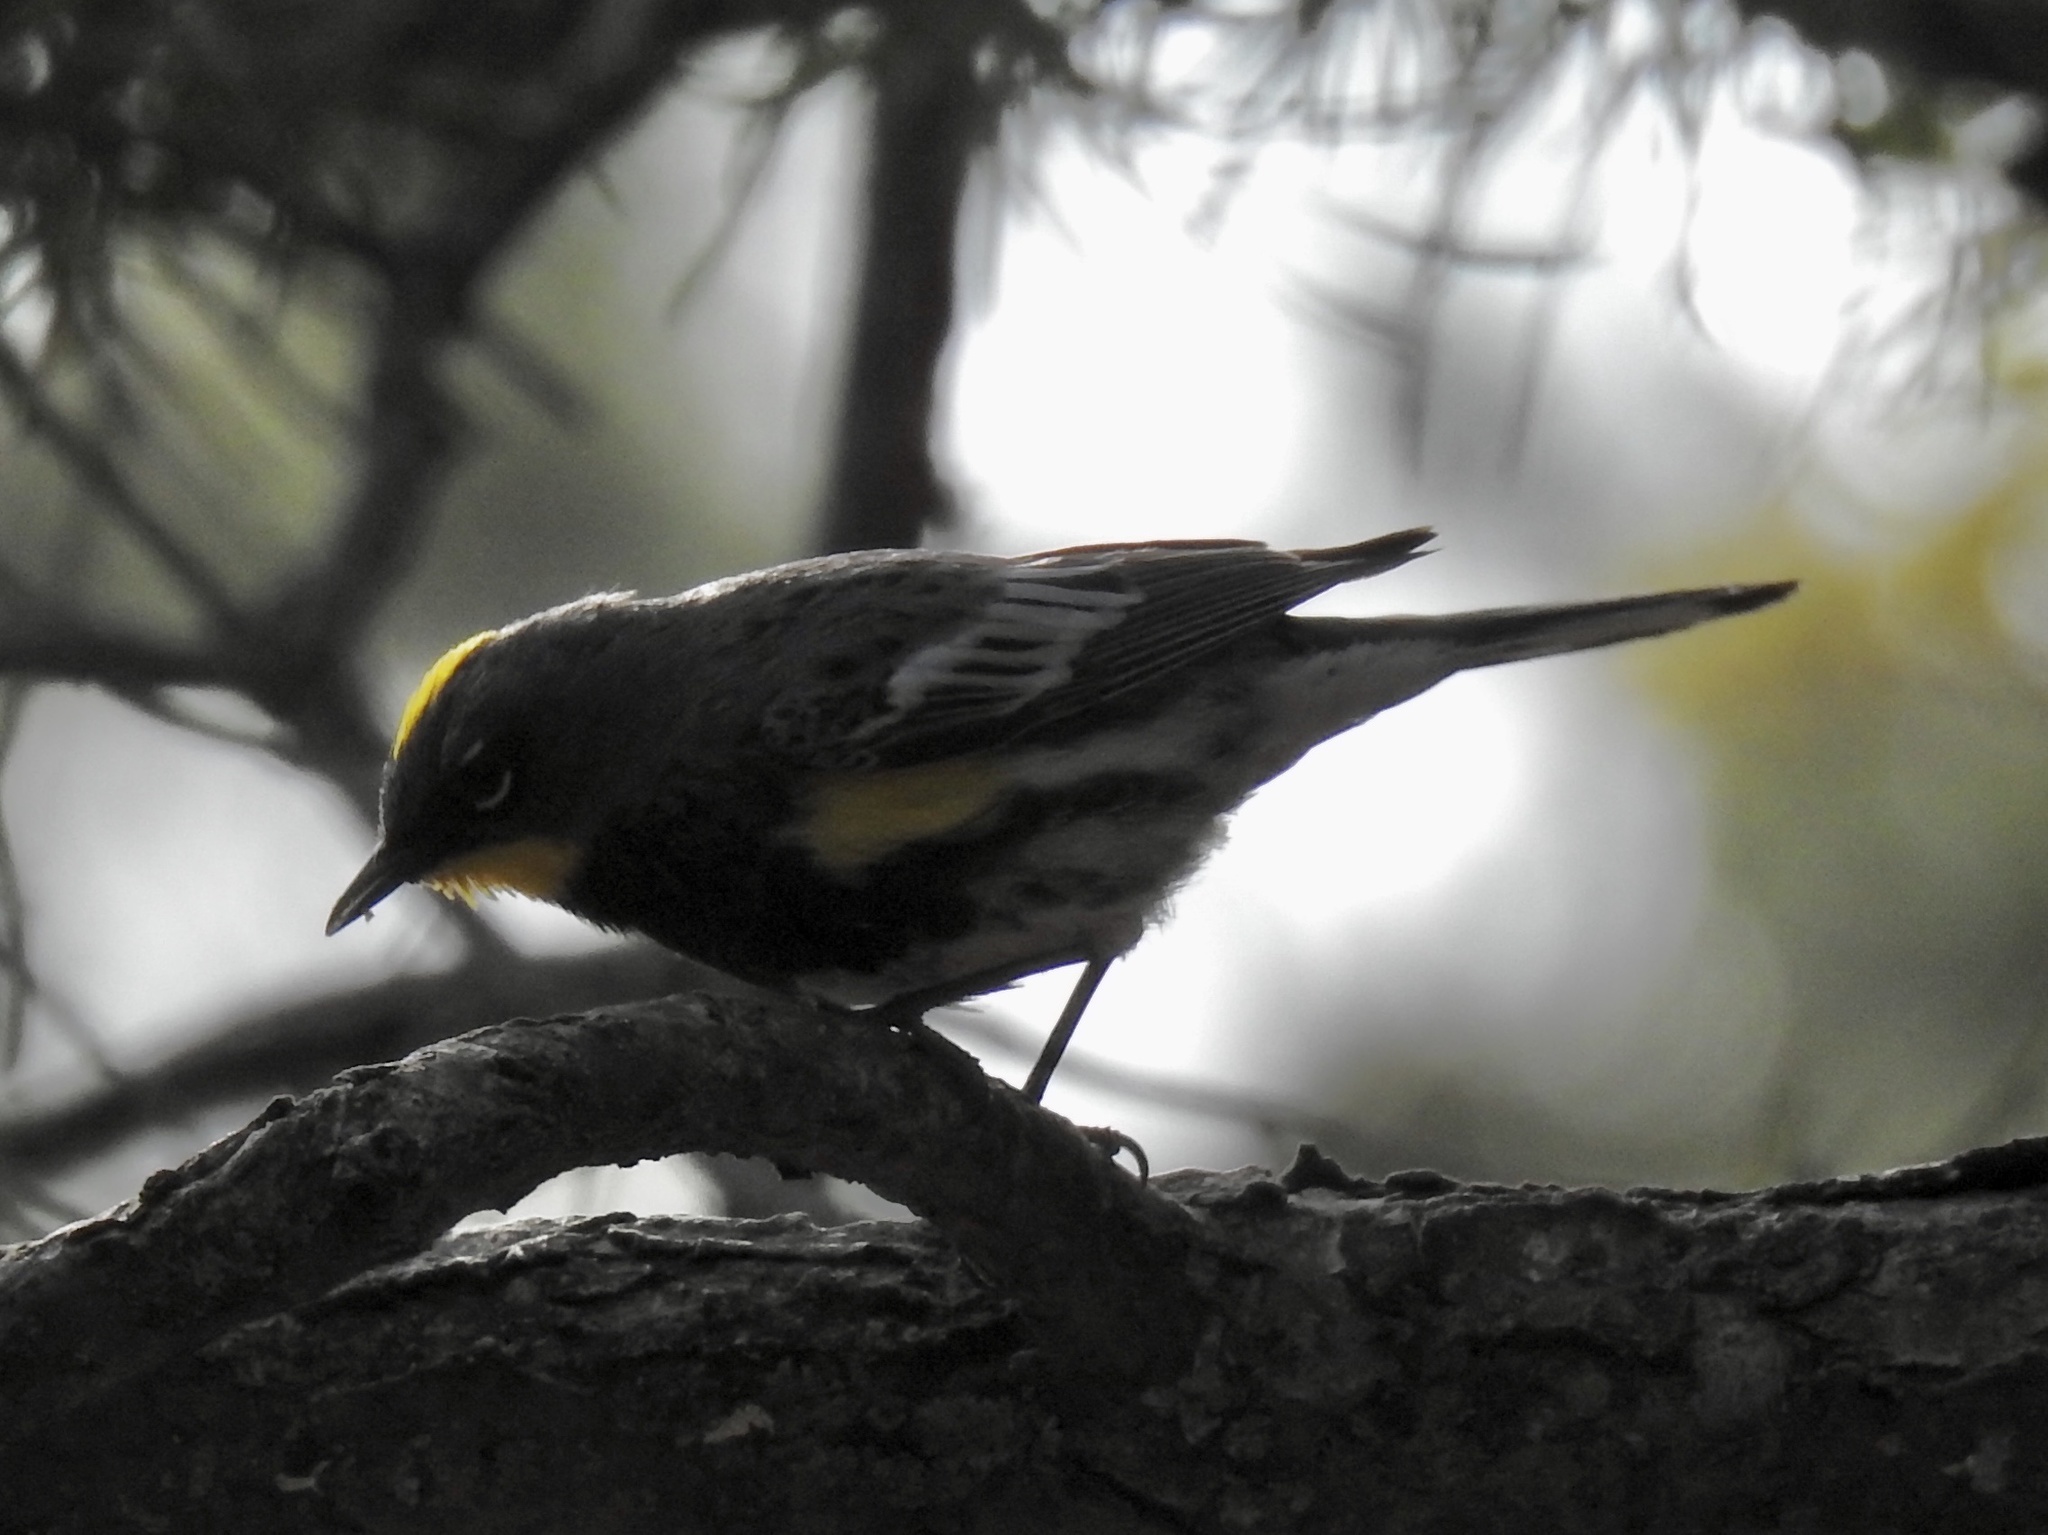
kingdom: Animalia
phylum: Chordata
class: Aves
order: Passeriformes
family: Parulidae
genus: Setophaga
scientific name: Setophaga coronata
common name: Myrtle warbler
